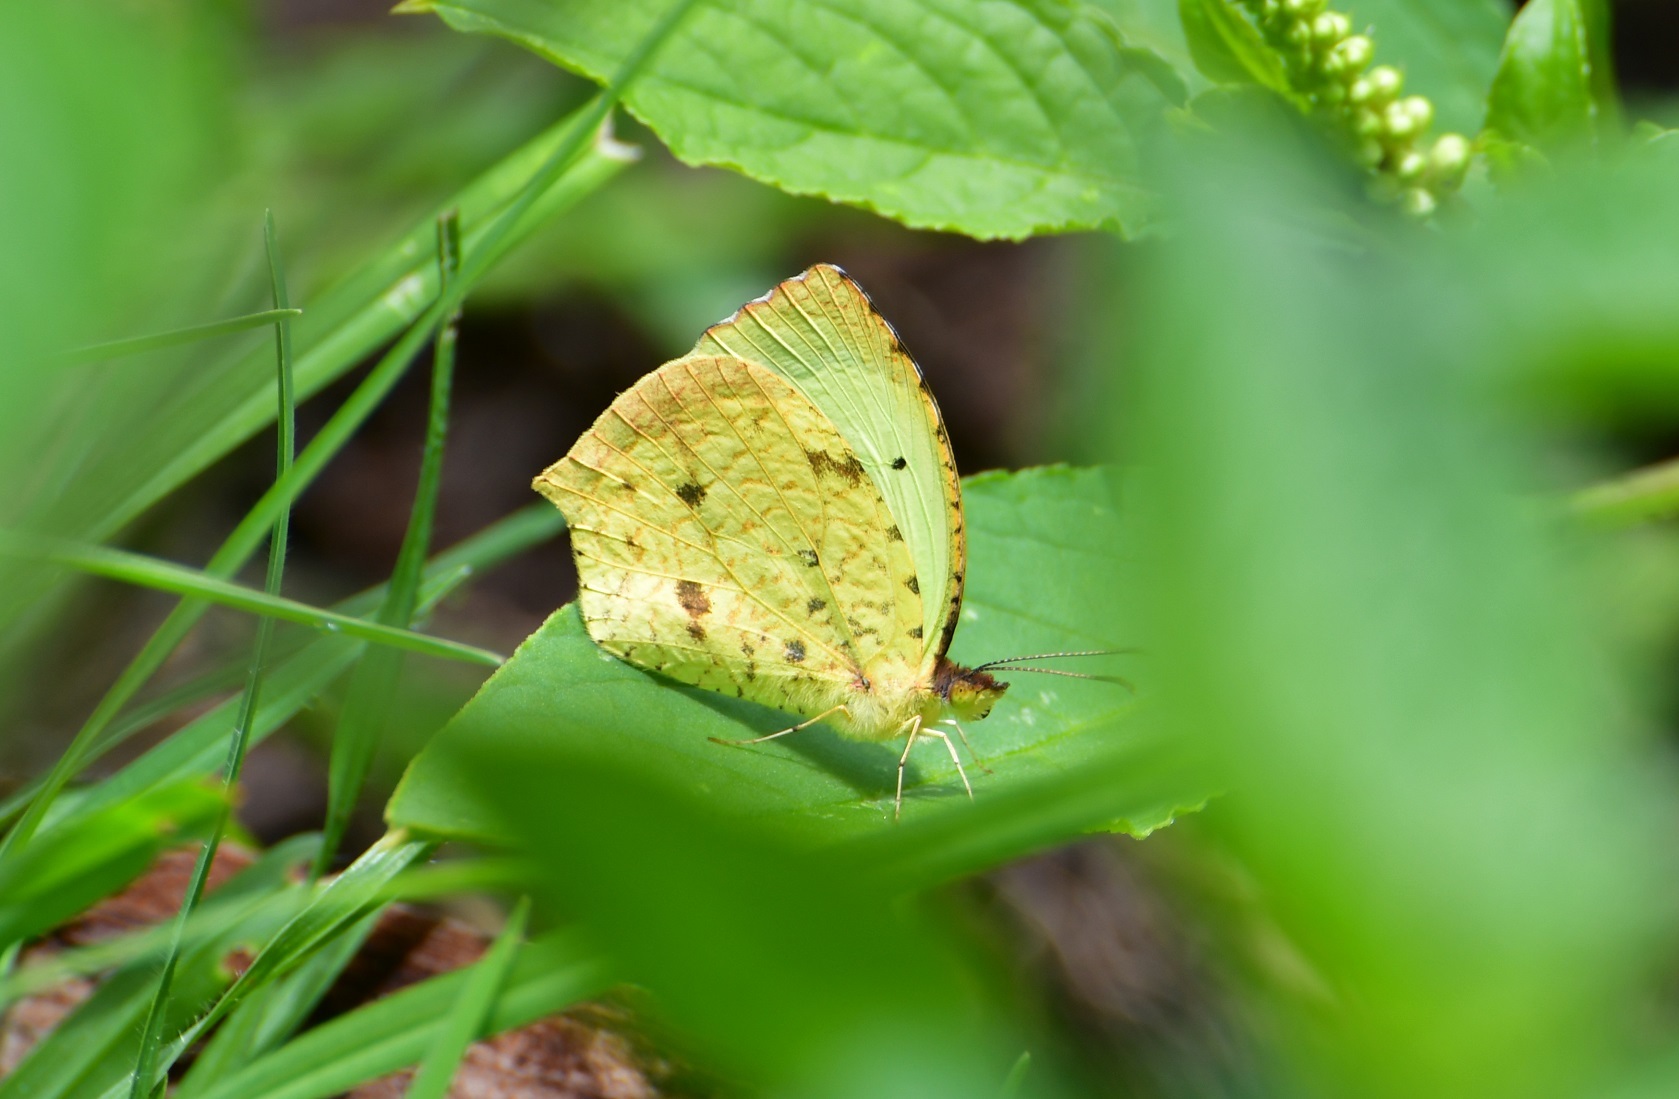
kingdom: Animalia
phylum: Arthropoda
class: Insecta
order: Lepidoptera
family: Pieridae
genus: Abaeis
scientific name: Abaeis salome
